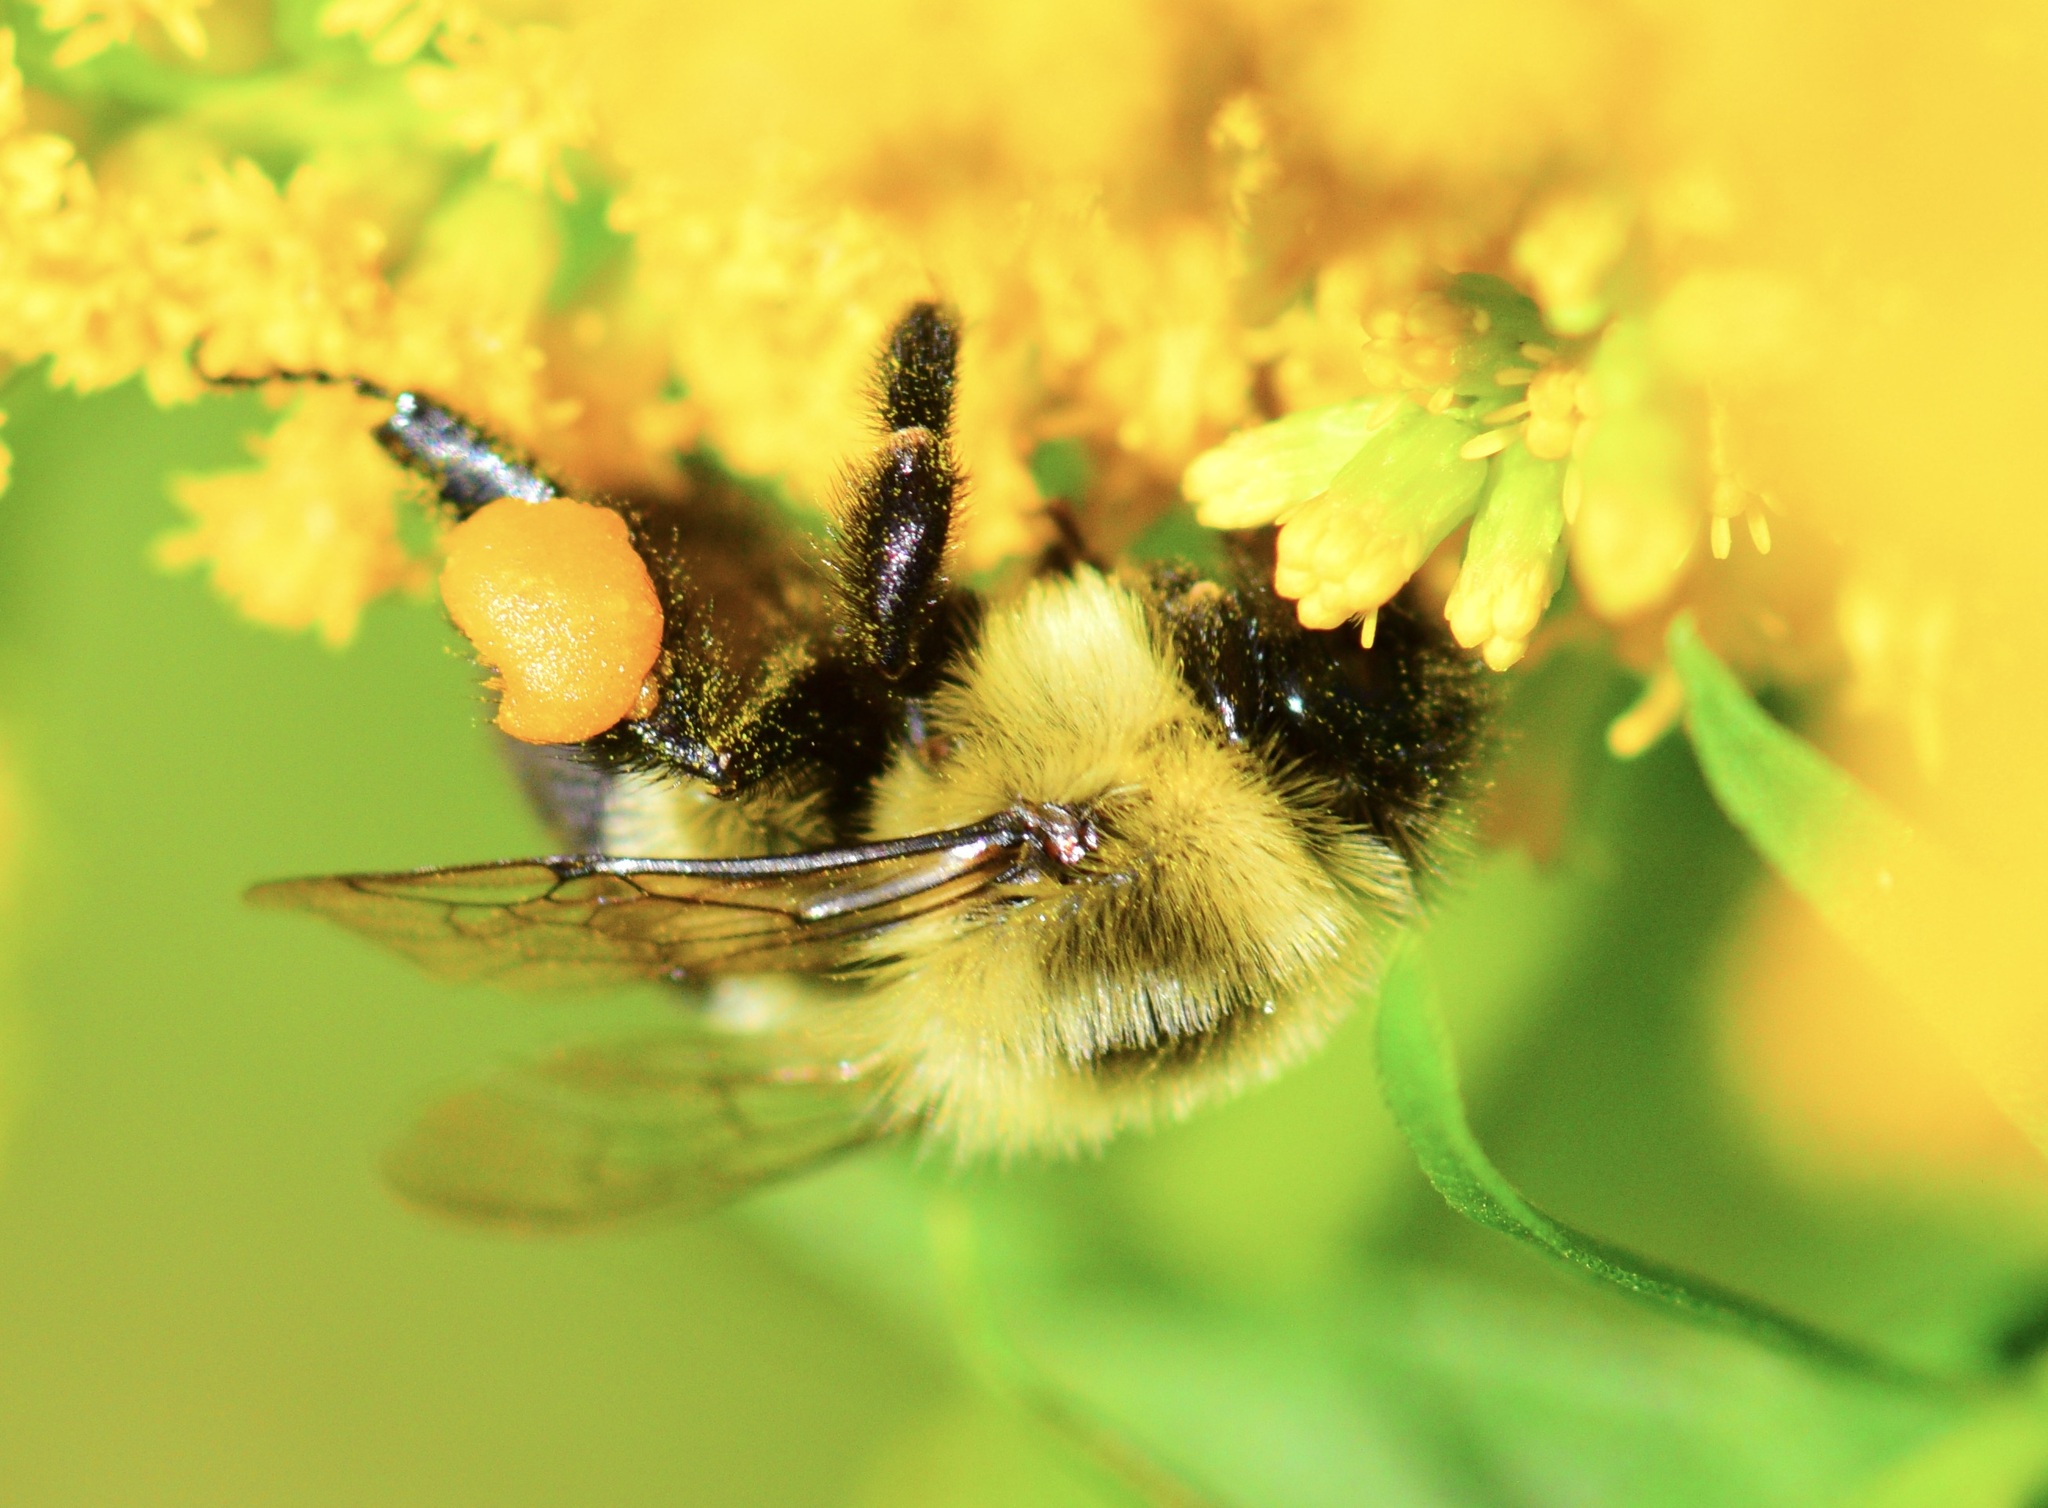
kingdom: Animalia
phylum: Arthropoda
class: Insecta
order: Hymenoptera
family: Apidae
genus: Bombus
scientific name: Bombus impatiens
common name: Common eastern bumble bee
